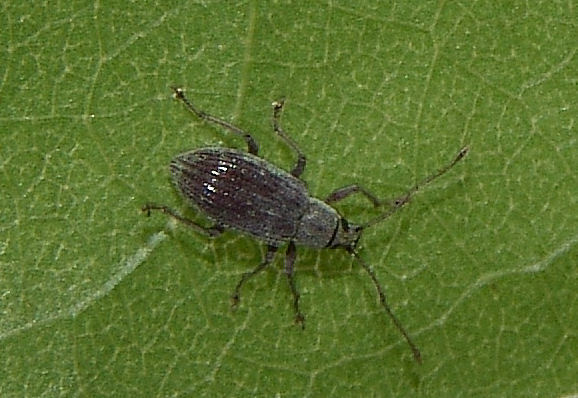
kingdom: Animalia
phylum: Arthropoda
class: Insecta
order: Coleoptera
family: Curculionidae
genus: Cyrtepistomus
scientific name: Cyrtepistomus castaneus
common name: Weevil
